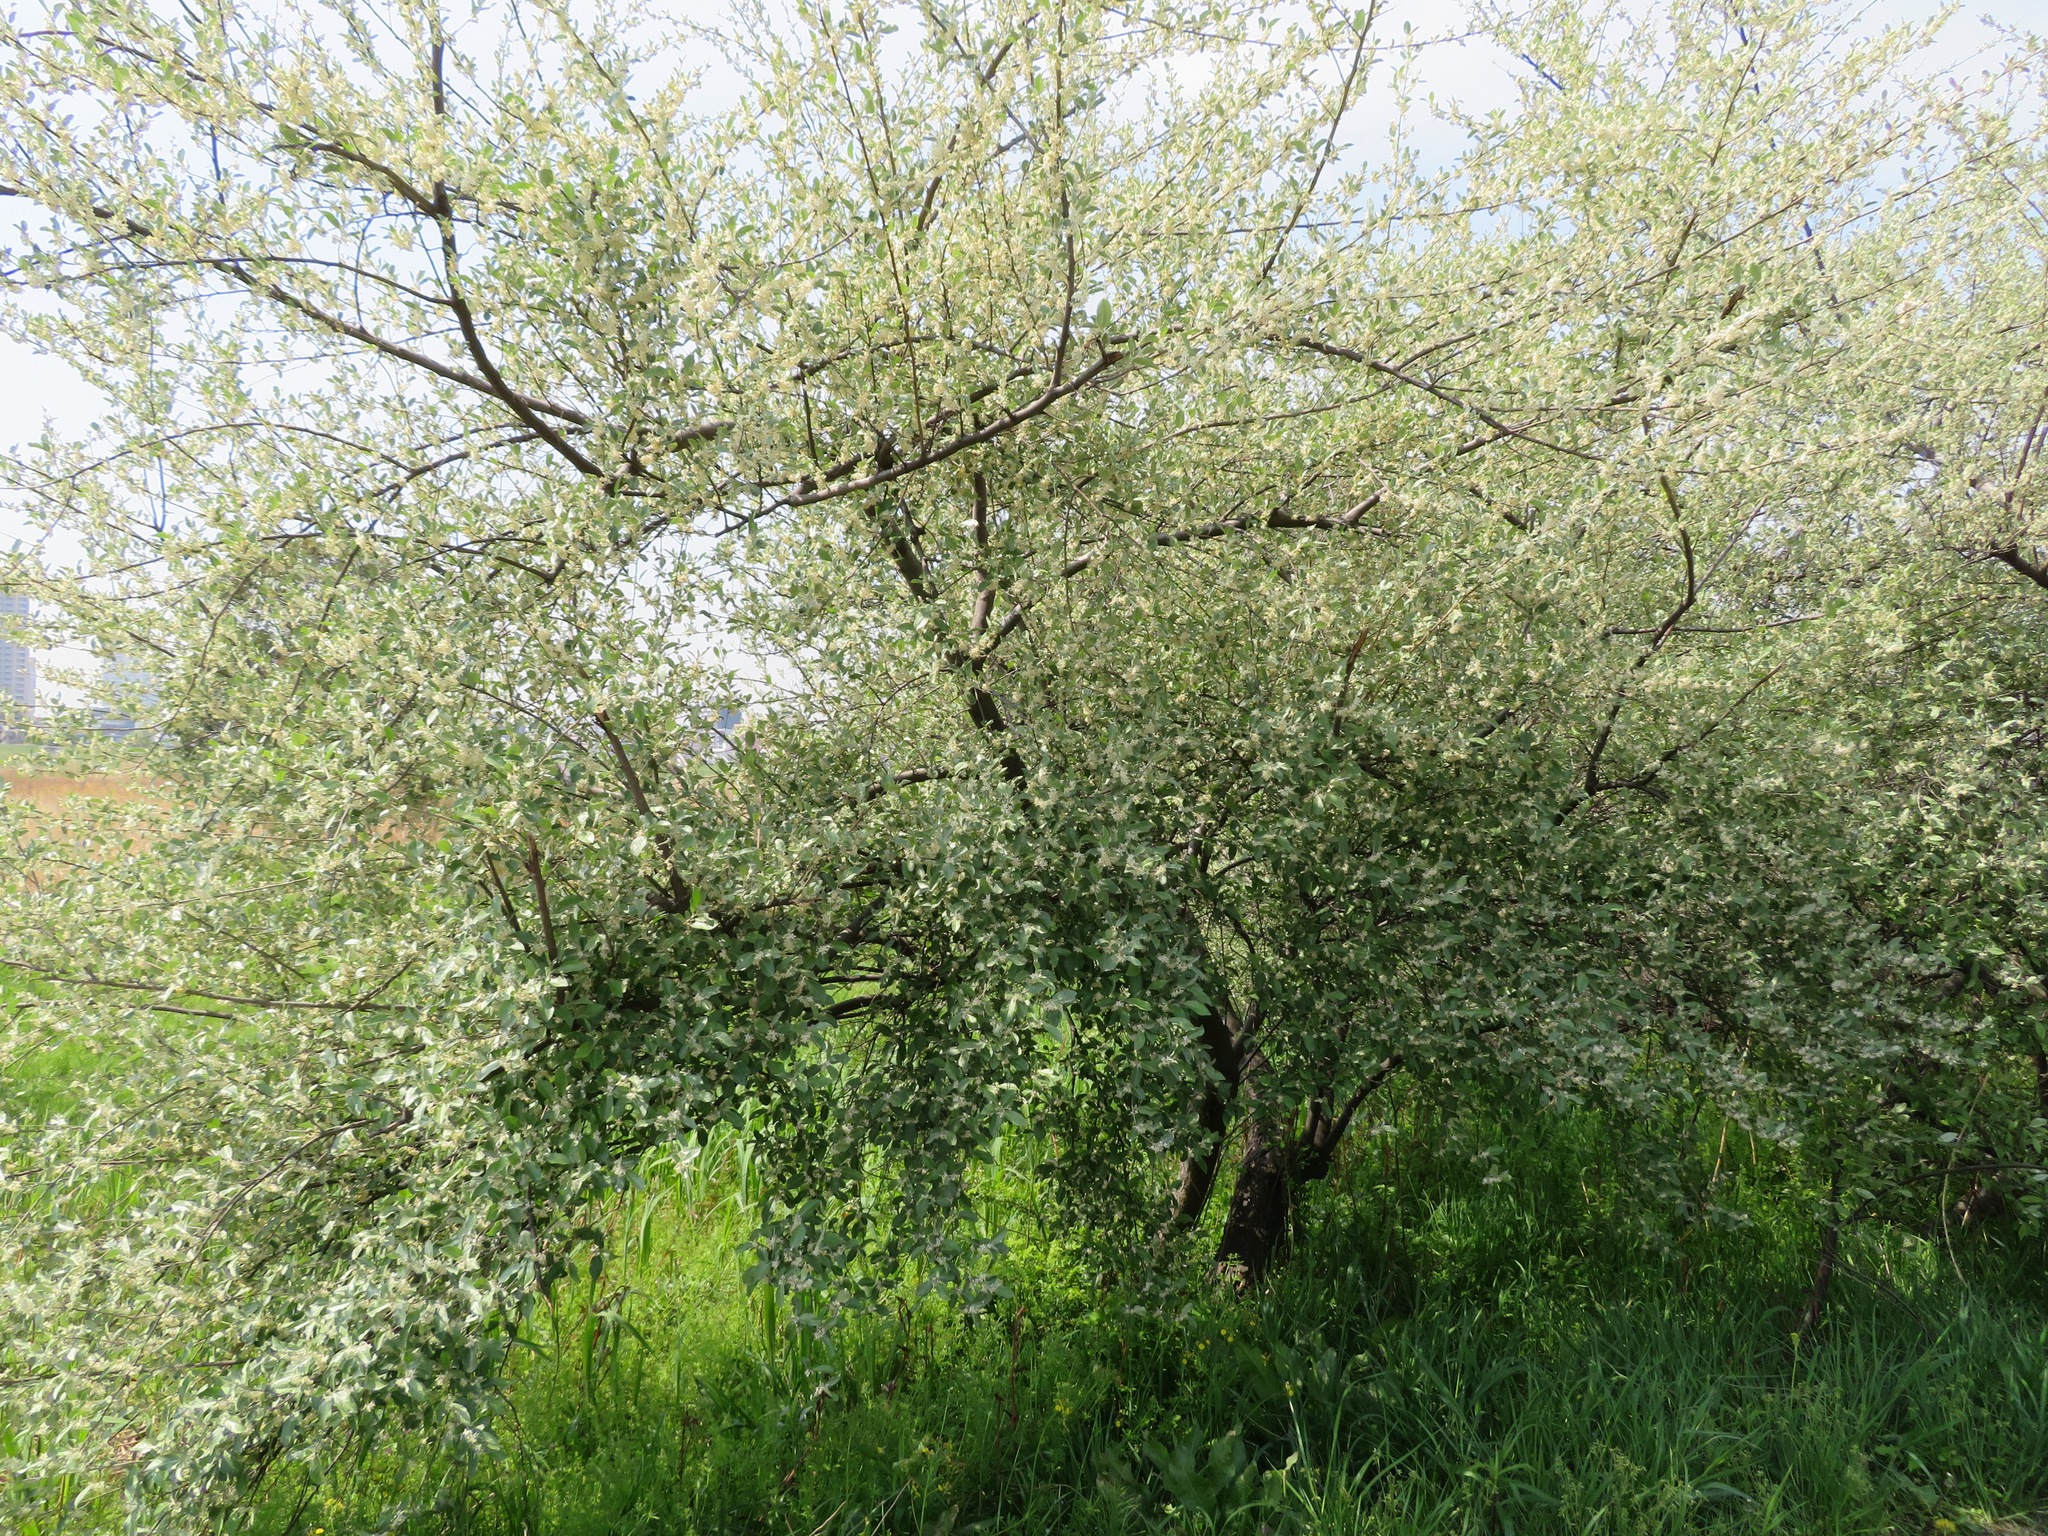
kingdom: Plantae
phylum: Tracheophyta
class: Magnoliopsida
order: Rosales
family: Elaeagnaceae
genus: Elaeagnus
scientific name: Elaeagnus umbellata
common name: Autumn olive
